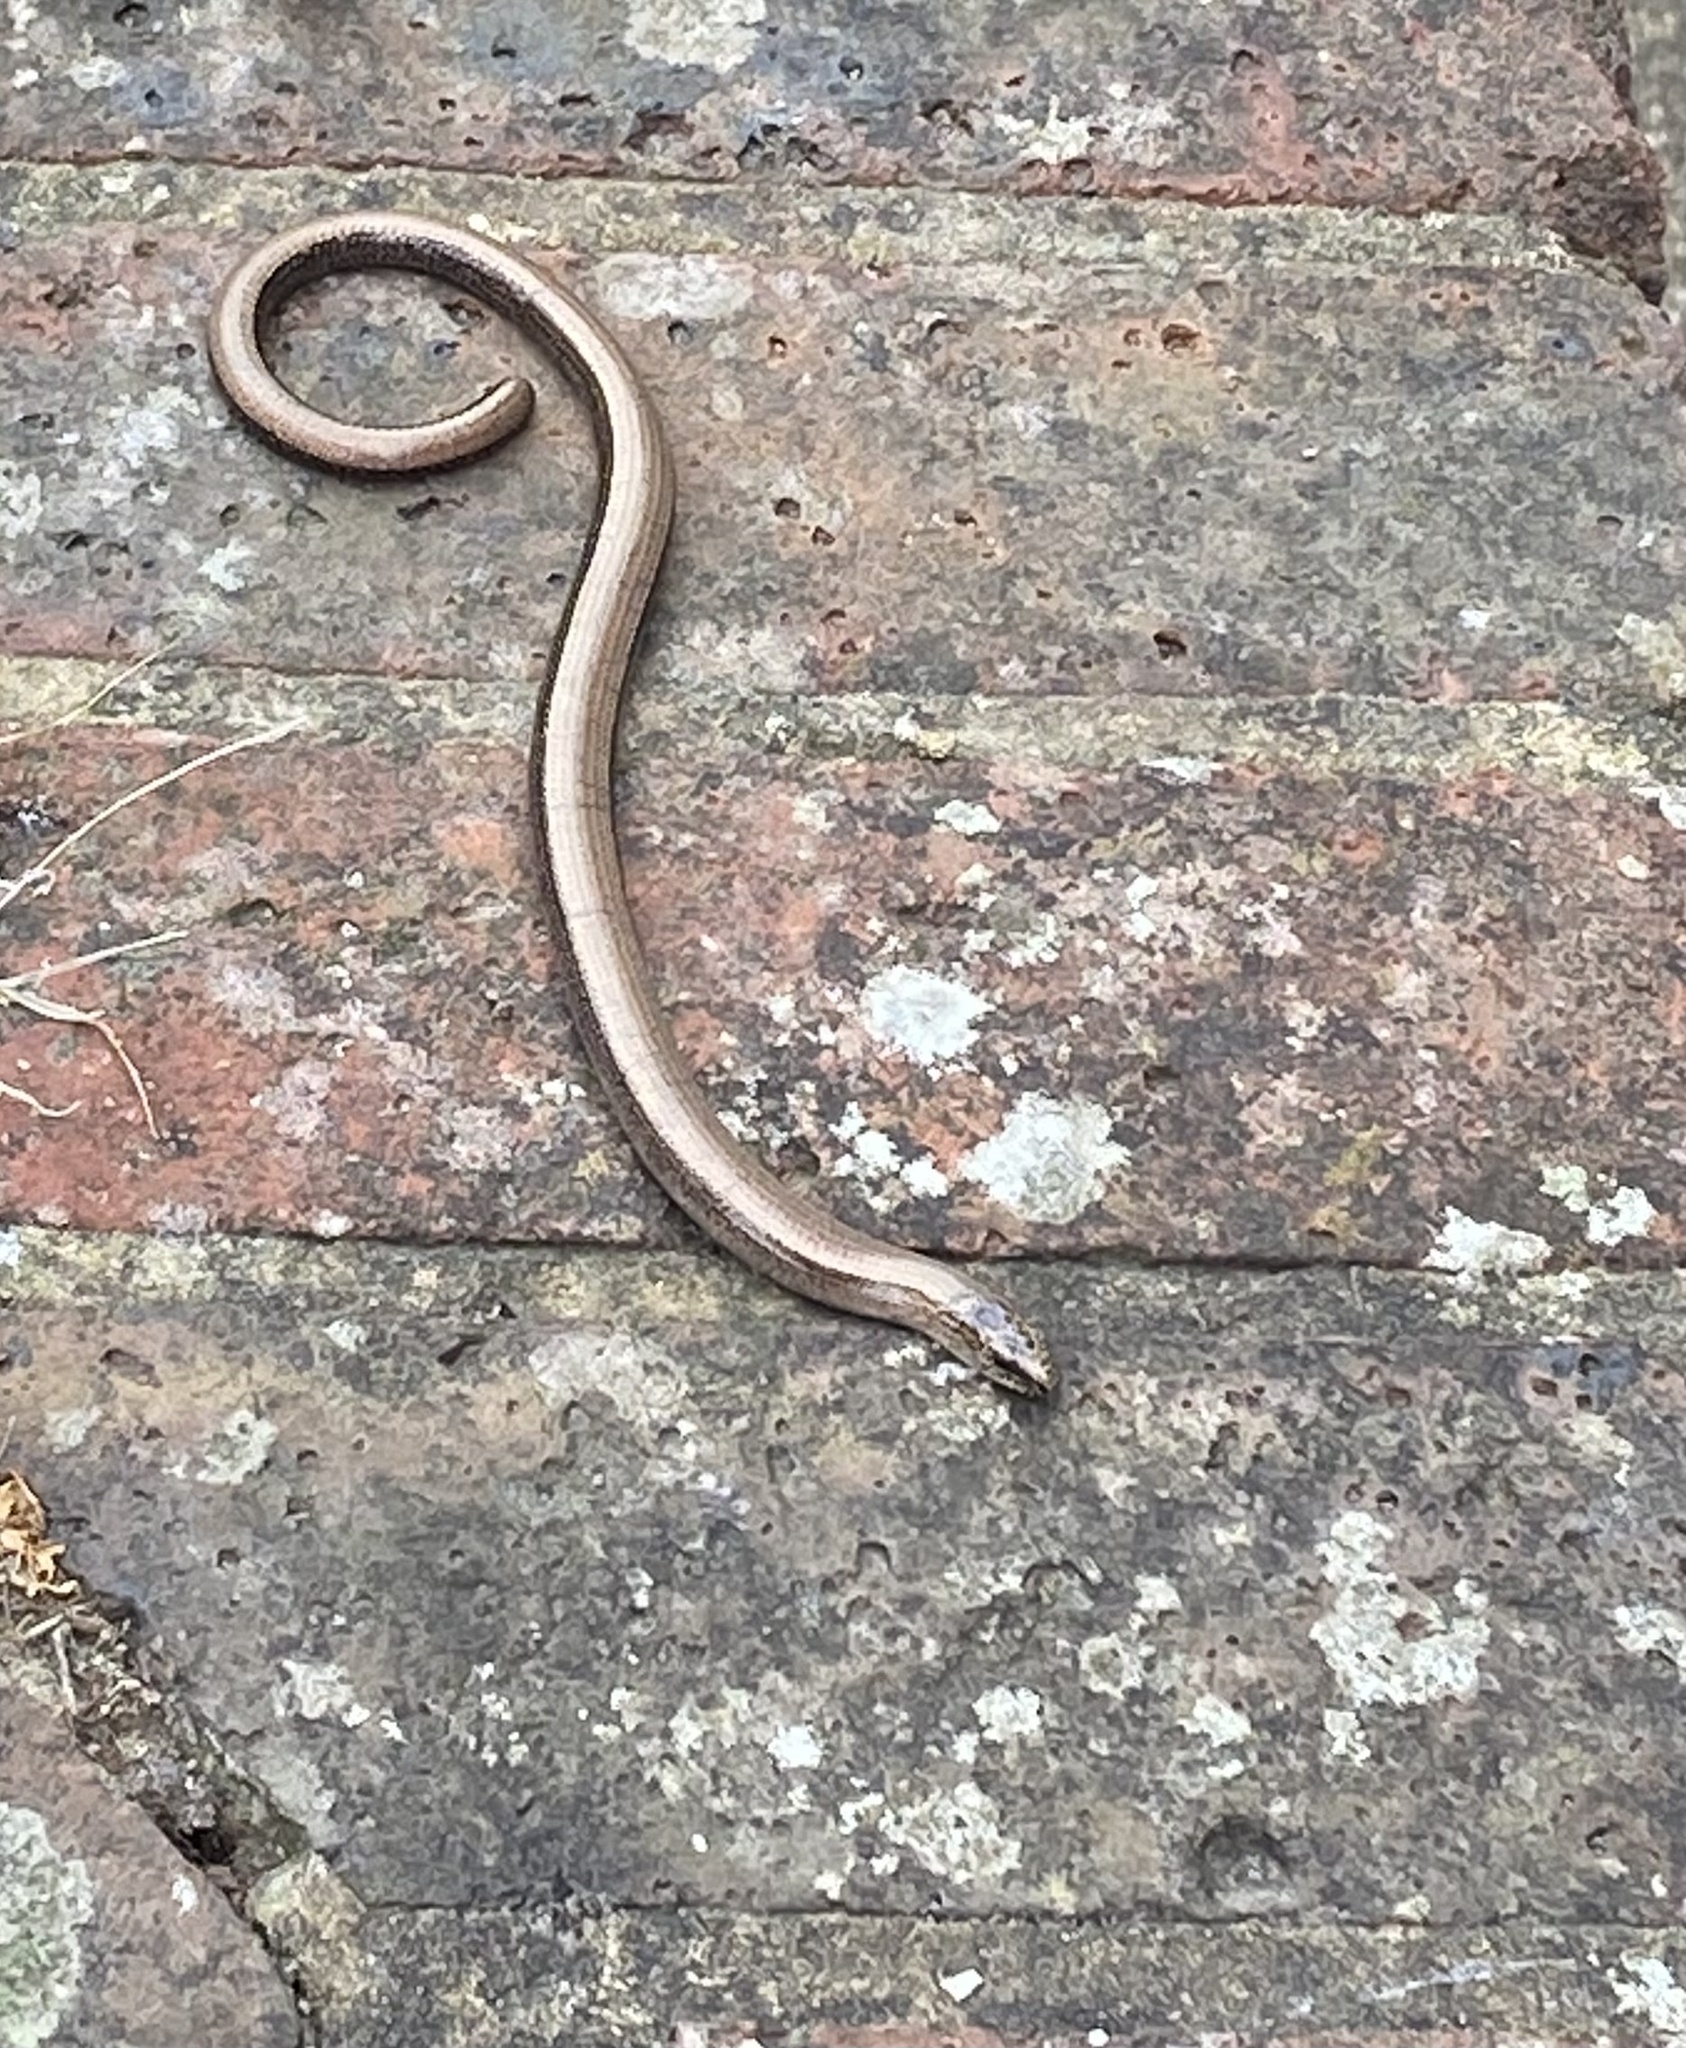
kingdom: Animalia
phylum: Chordata
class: Squamata
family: Anguidae
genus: Anguis
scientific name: Anguis fragilis
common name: Slow worm
